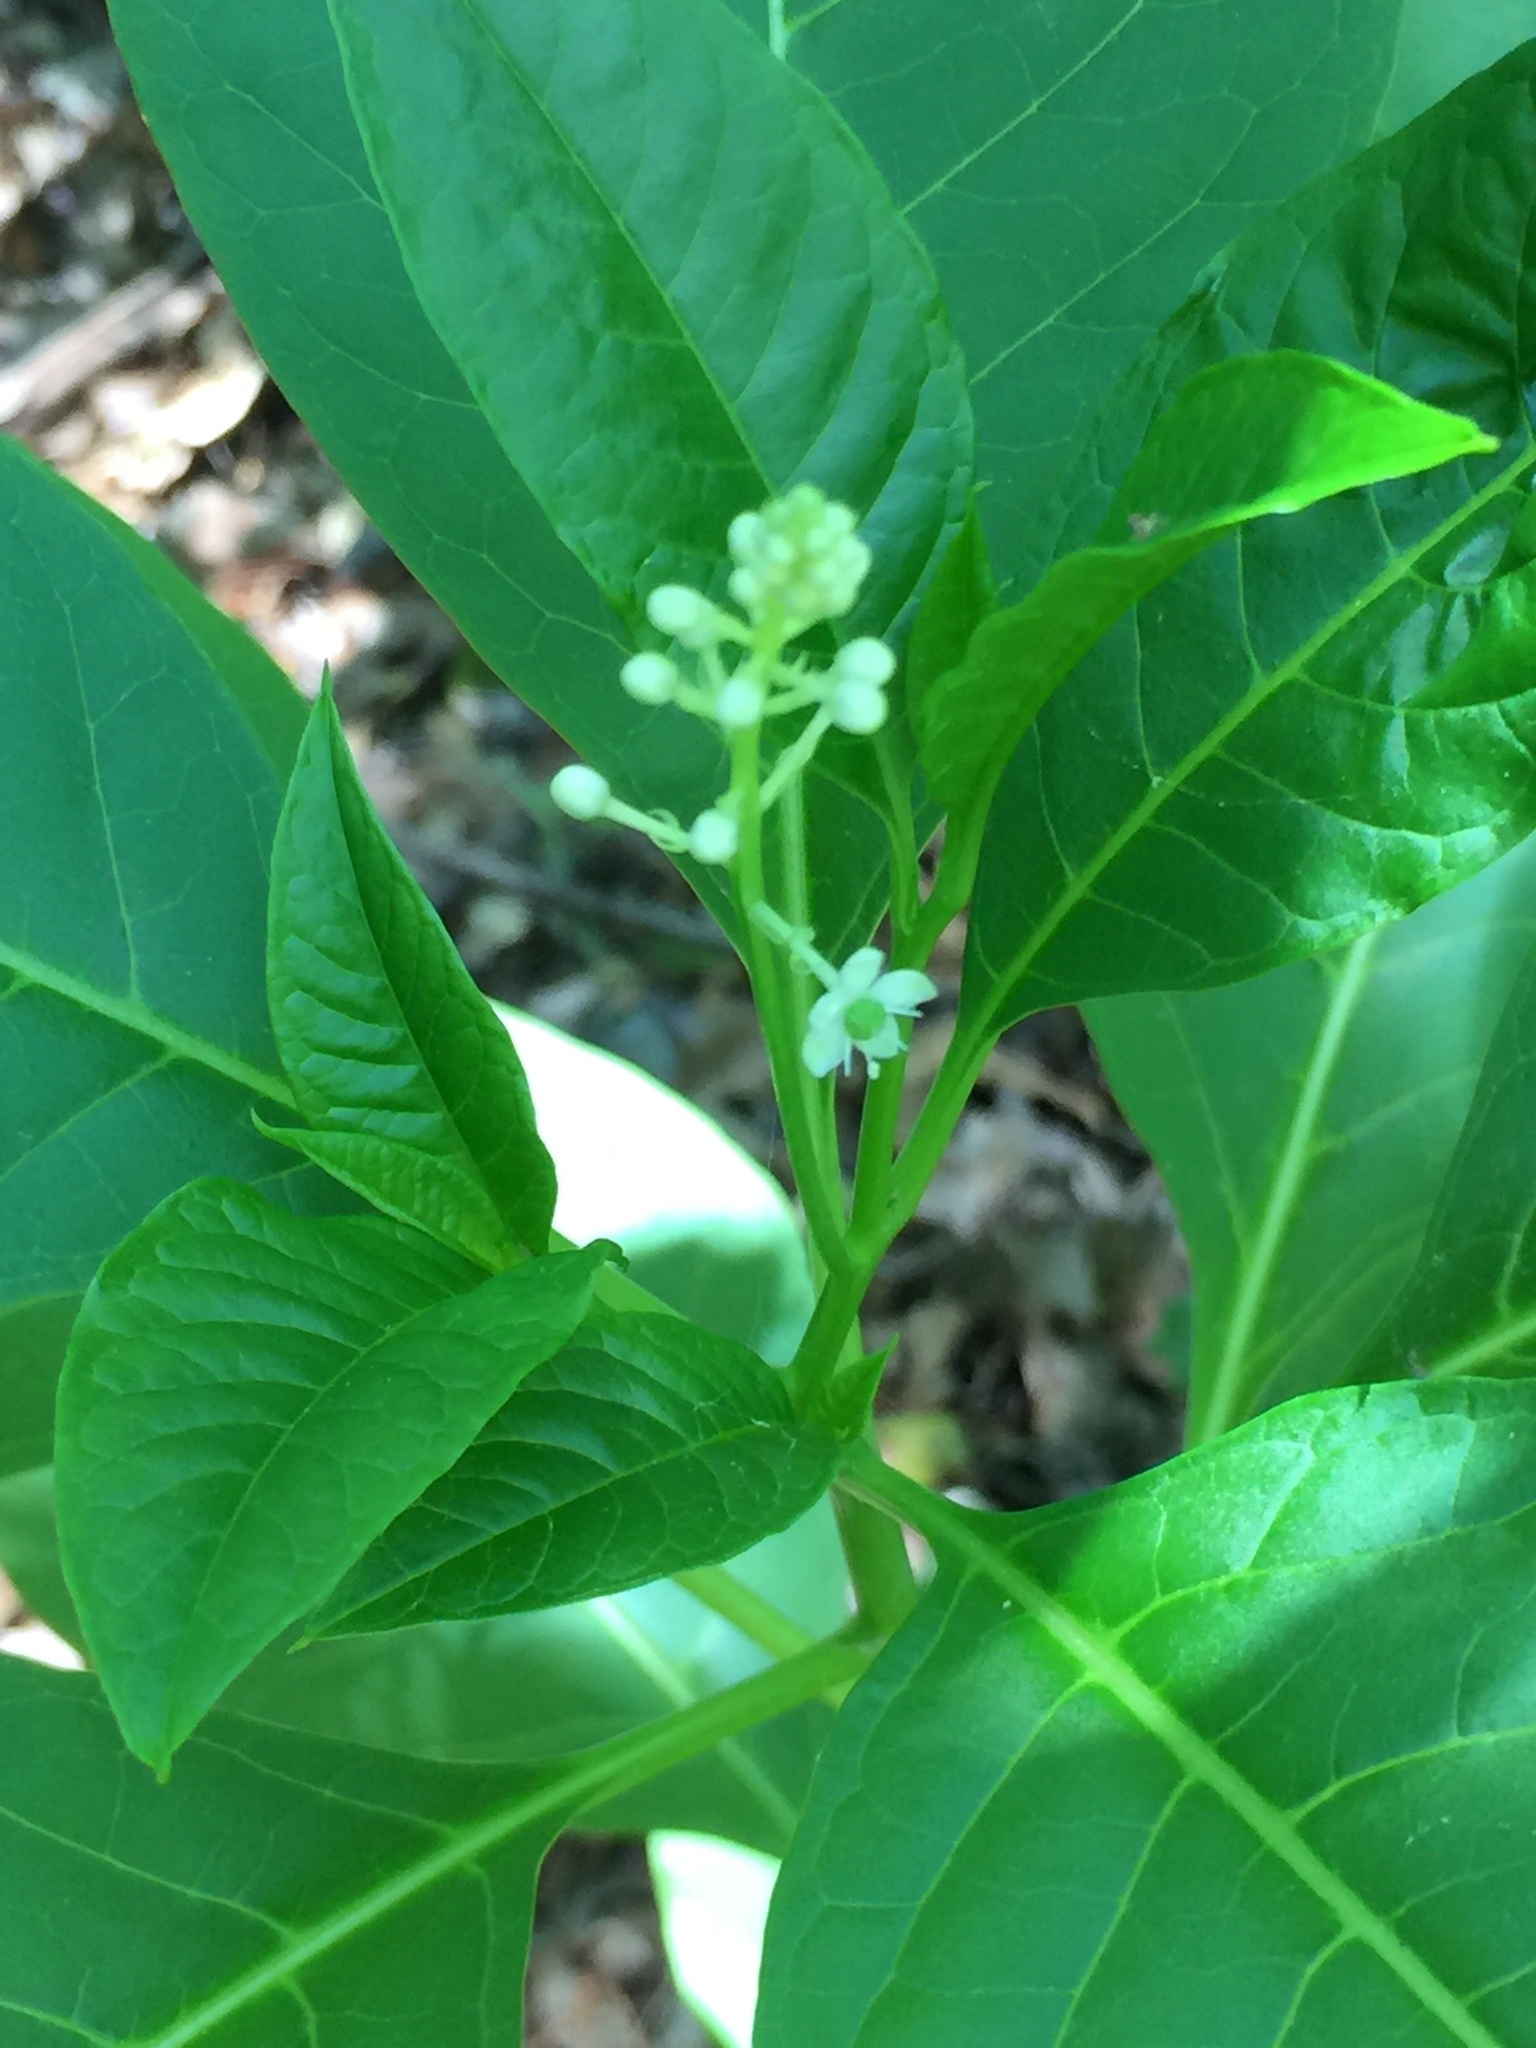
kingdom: Plantae
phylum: Tracheophyta
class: Magnoliopsida
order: Caryophyllales
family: Phytolaccaceae
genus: Phytolacca
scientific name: Phytolacca americana
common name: American pokeweed
